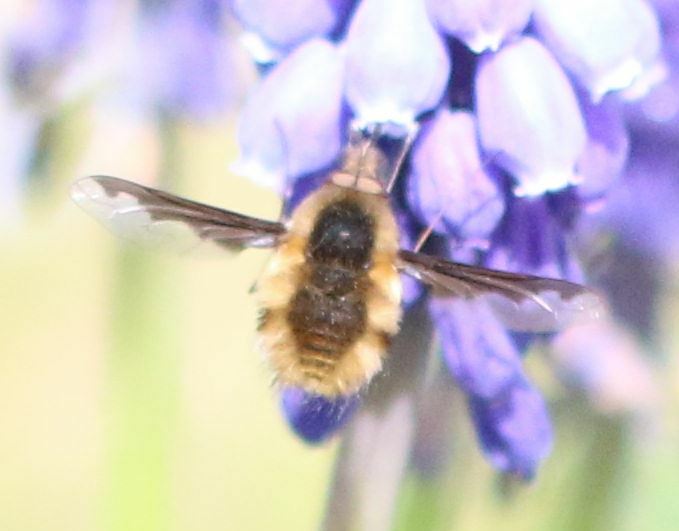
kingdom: Animalia
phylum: Arthropoda
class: Insecta
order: Diptera
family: Bombyliidae
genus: Bombylius
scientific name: Bombylius major
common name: Bee fly
